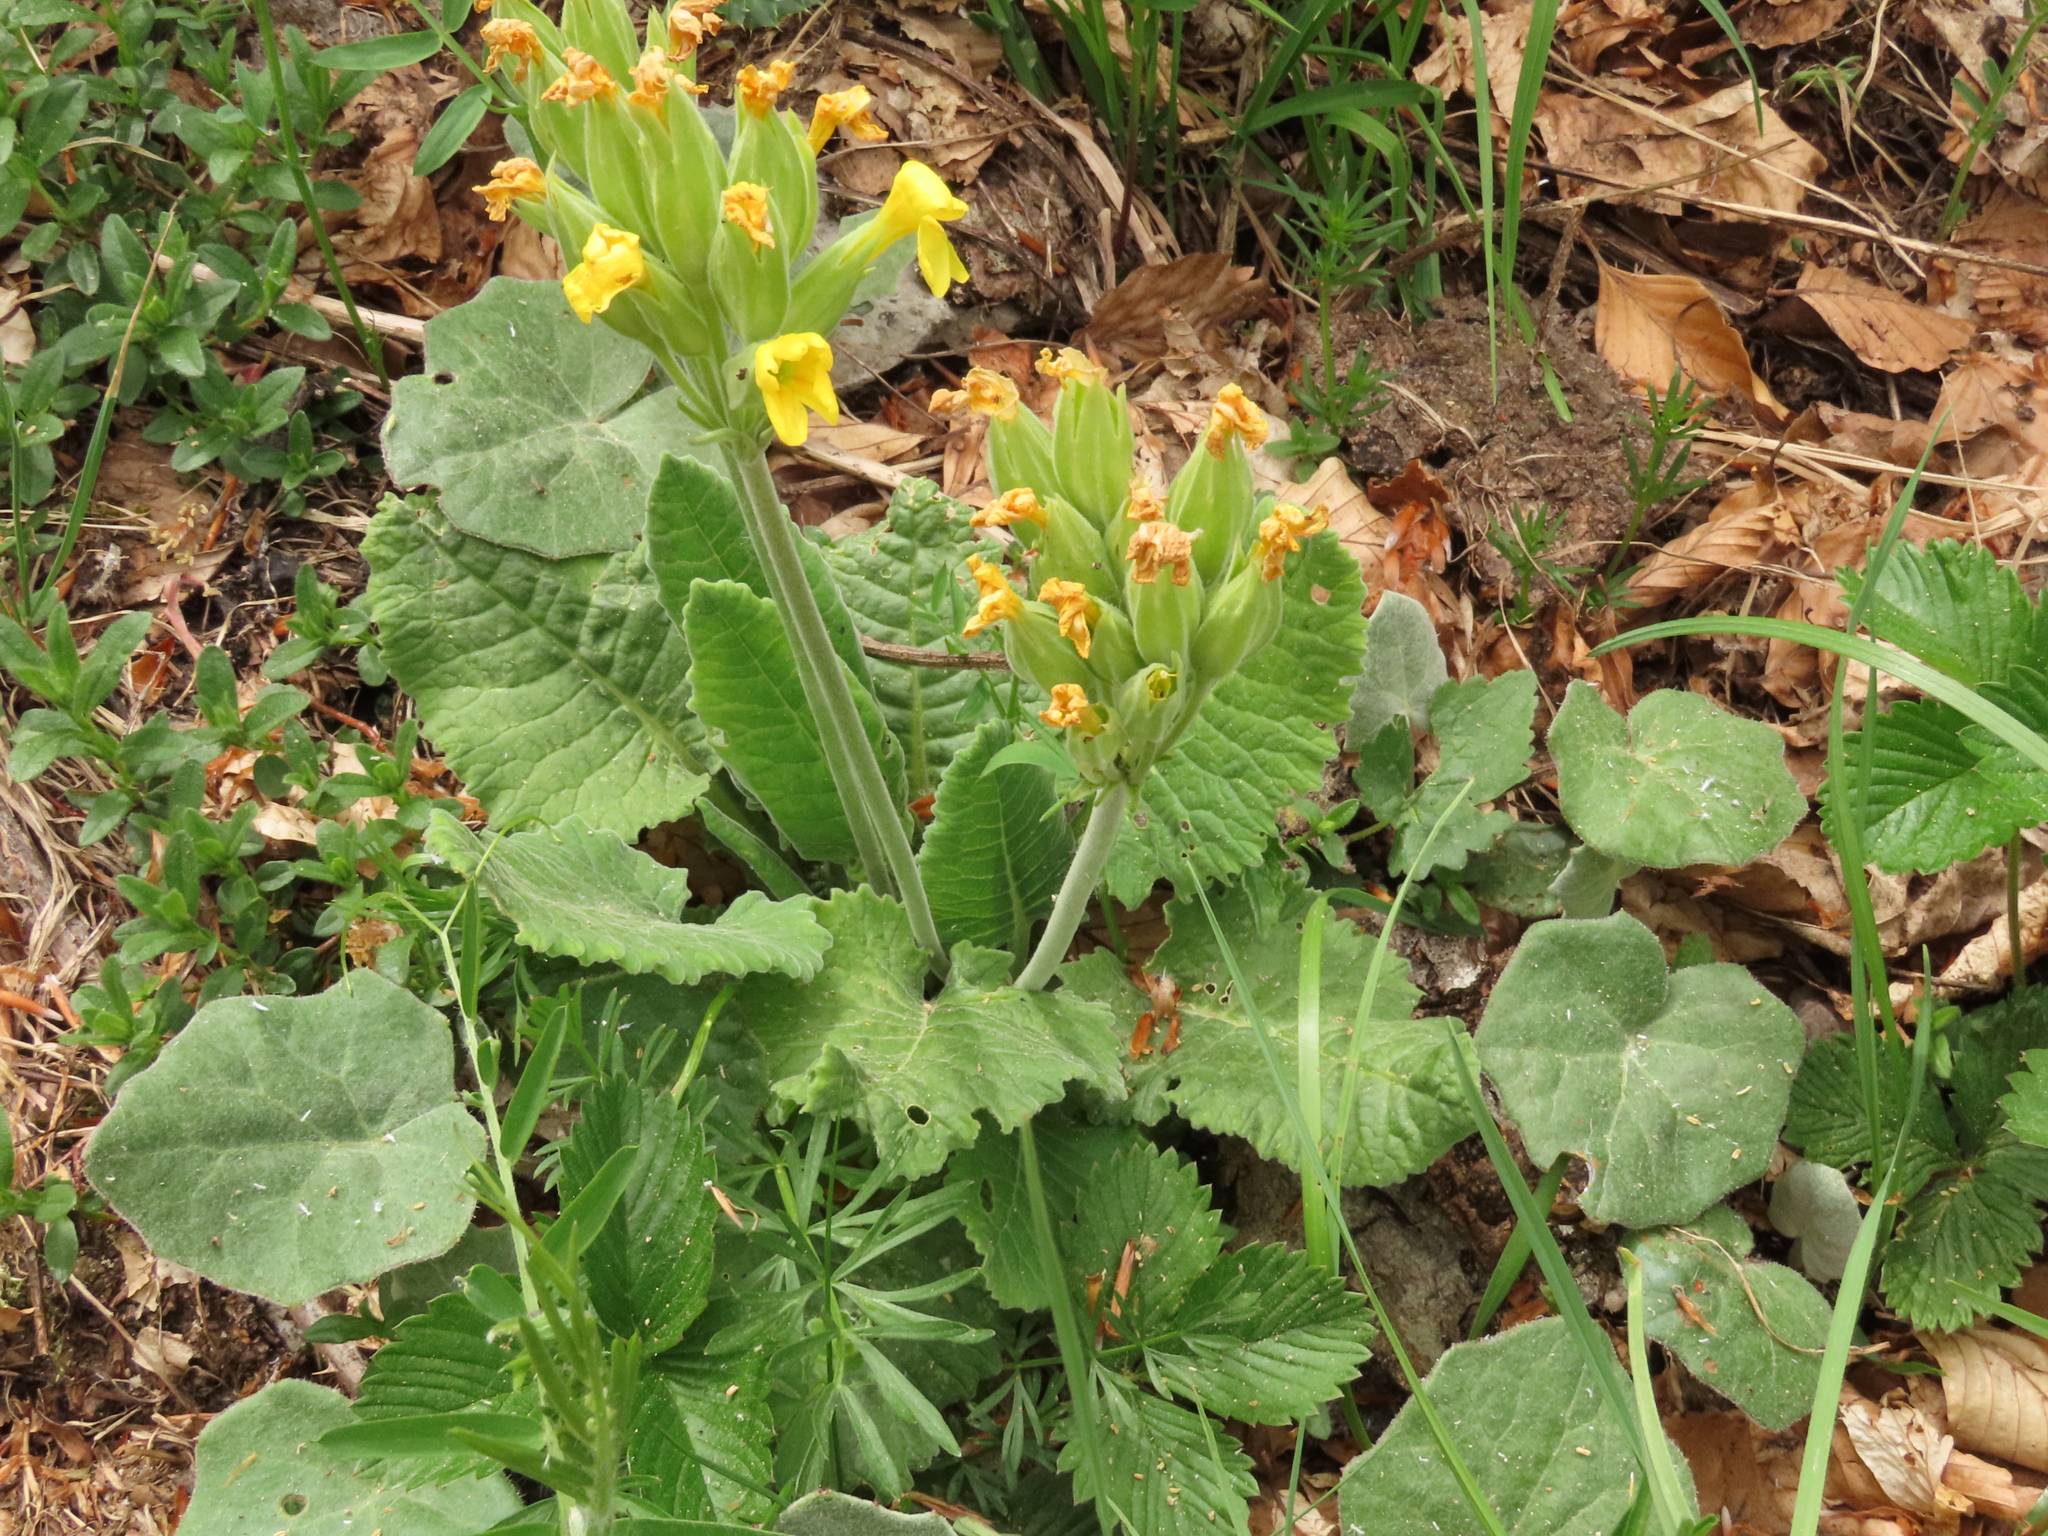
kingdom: Plantae
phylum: Tracheophyta
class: Magnoliopsida
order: Ericales
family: Primulaceae
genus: Primula
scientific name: Primula veris
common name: Cowslip
